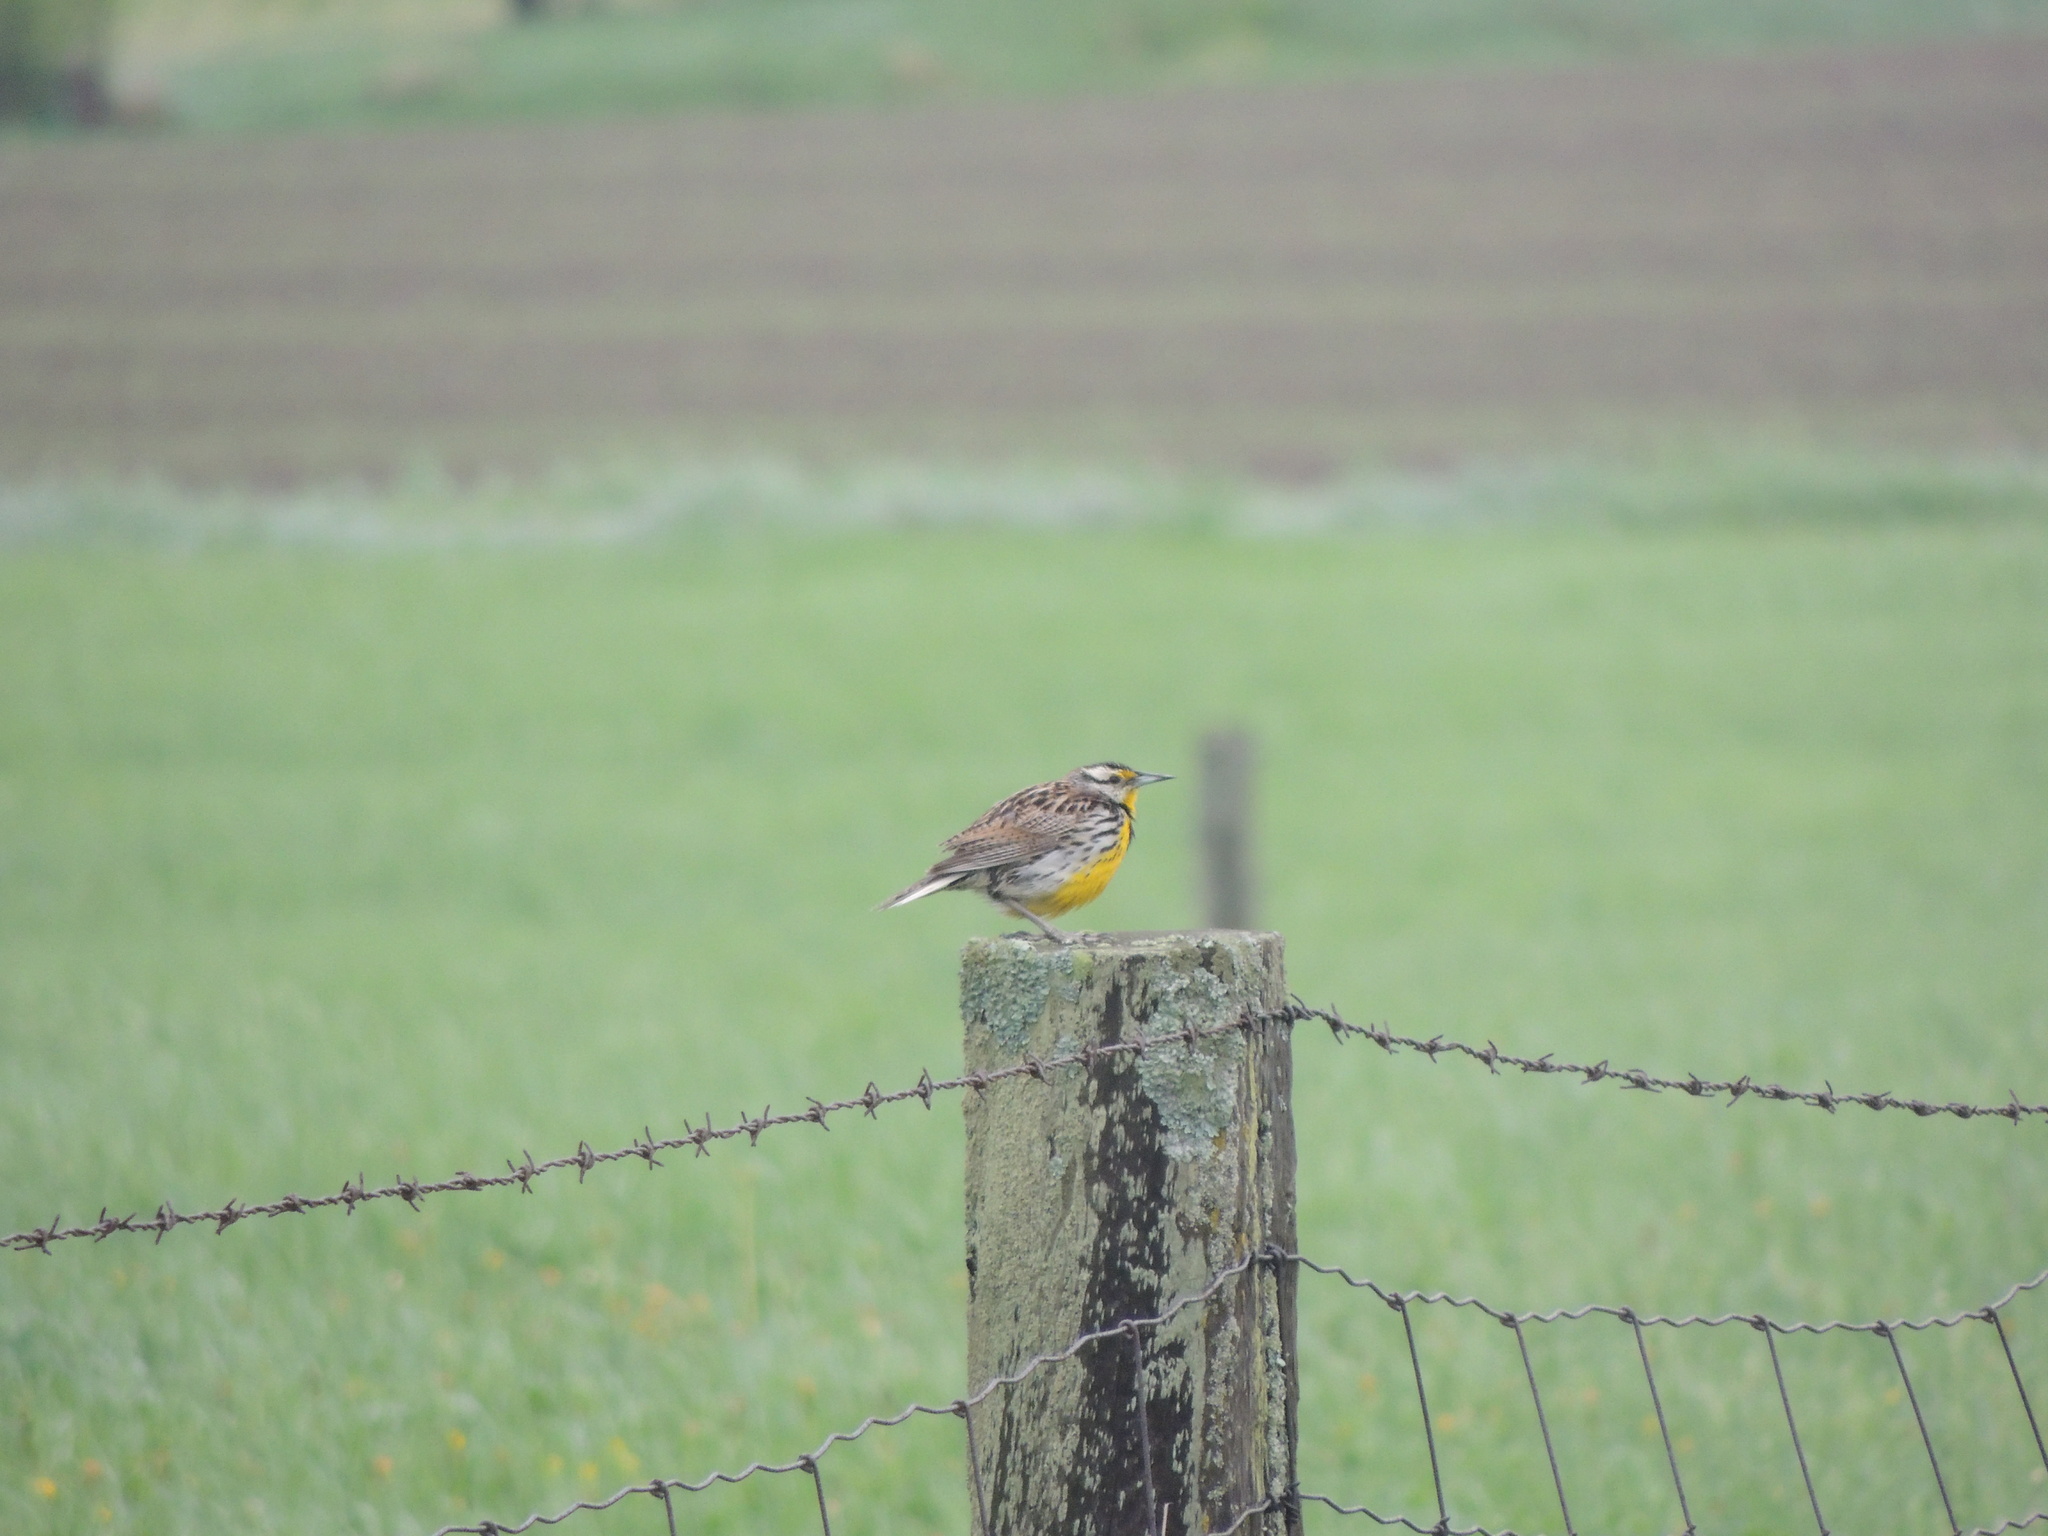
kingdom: Animalia
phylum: Chordata
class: Aves
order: Passeriformes
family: Icteridae
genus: Sturnella
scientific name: Sturnella magna
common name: Eastern meadowlark
